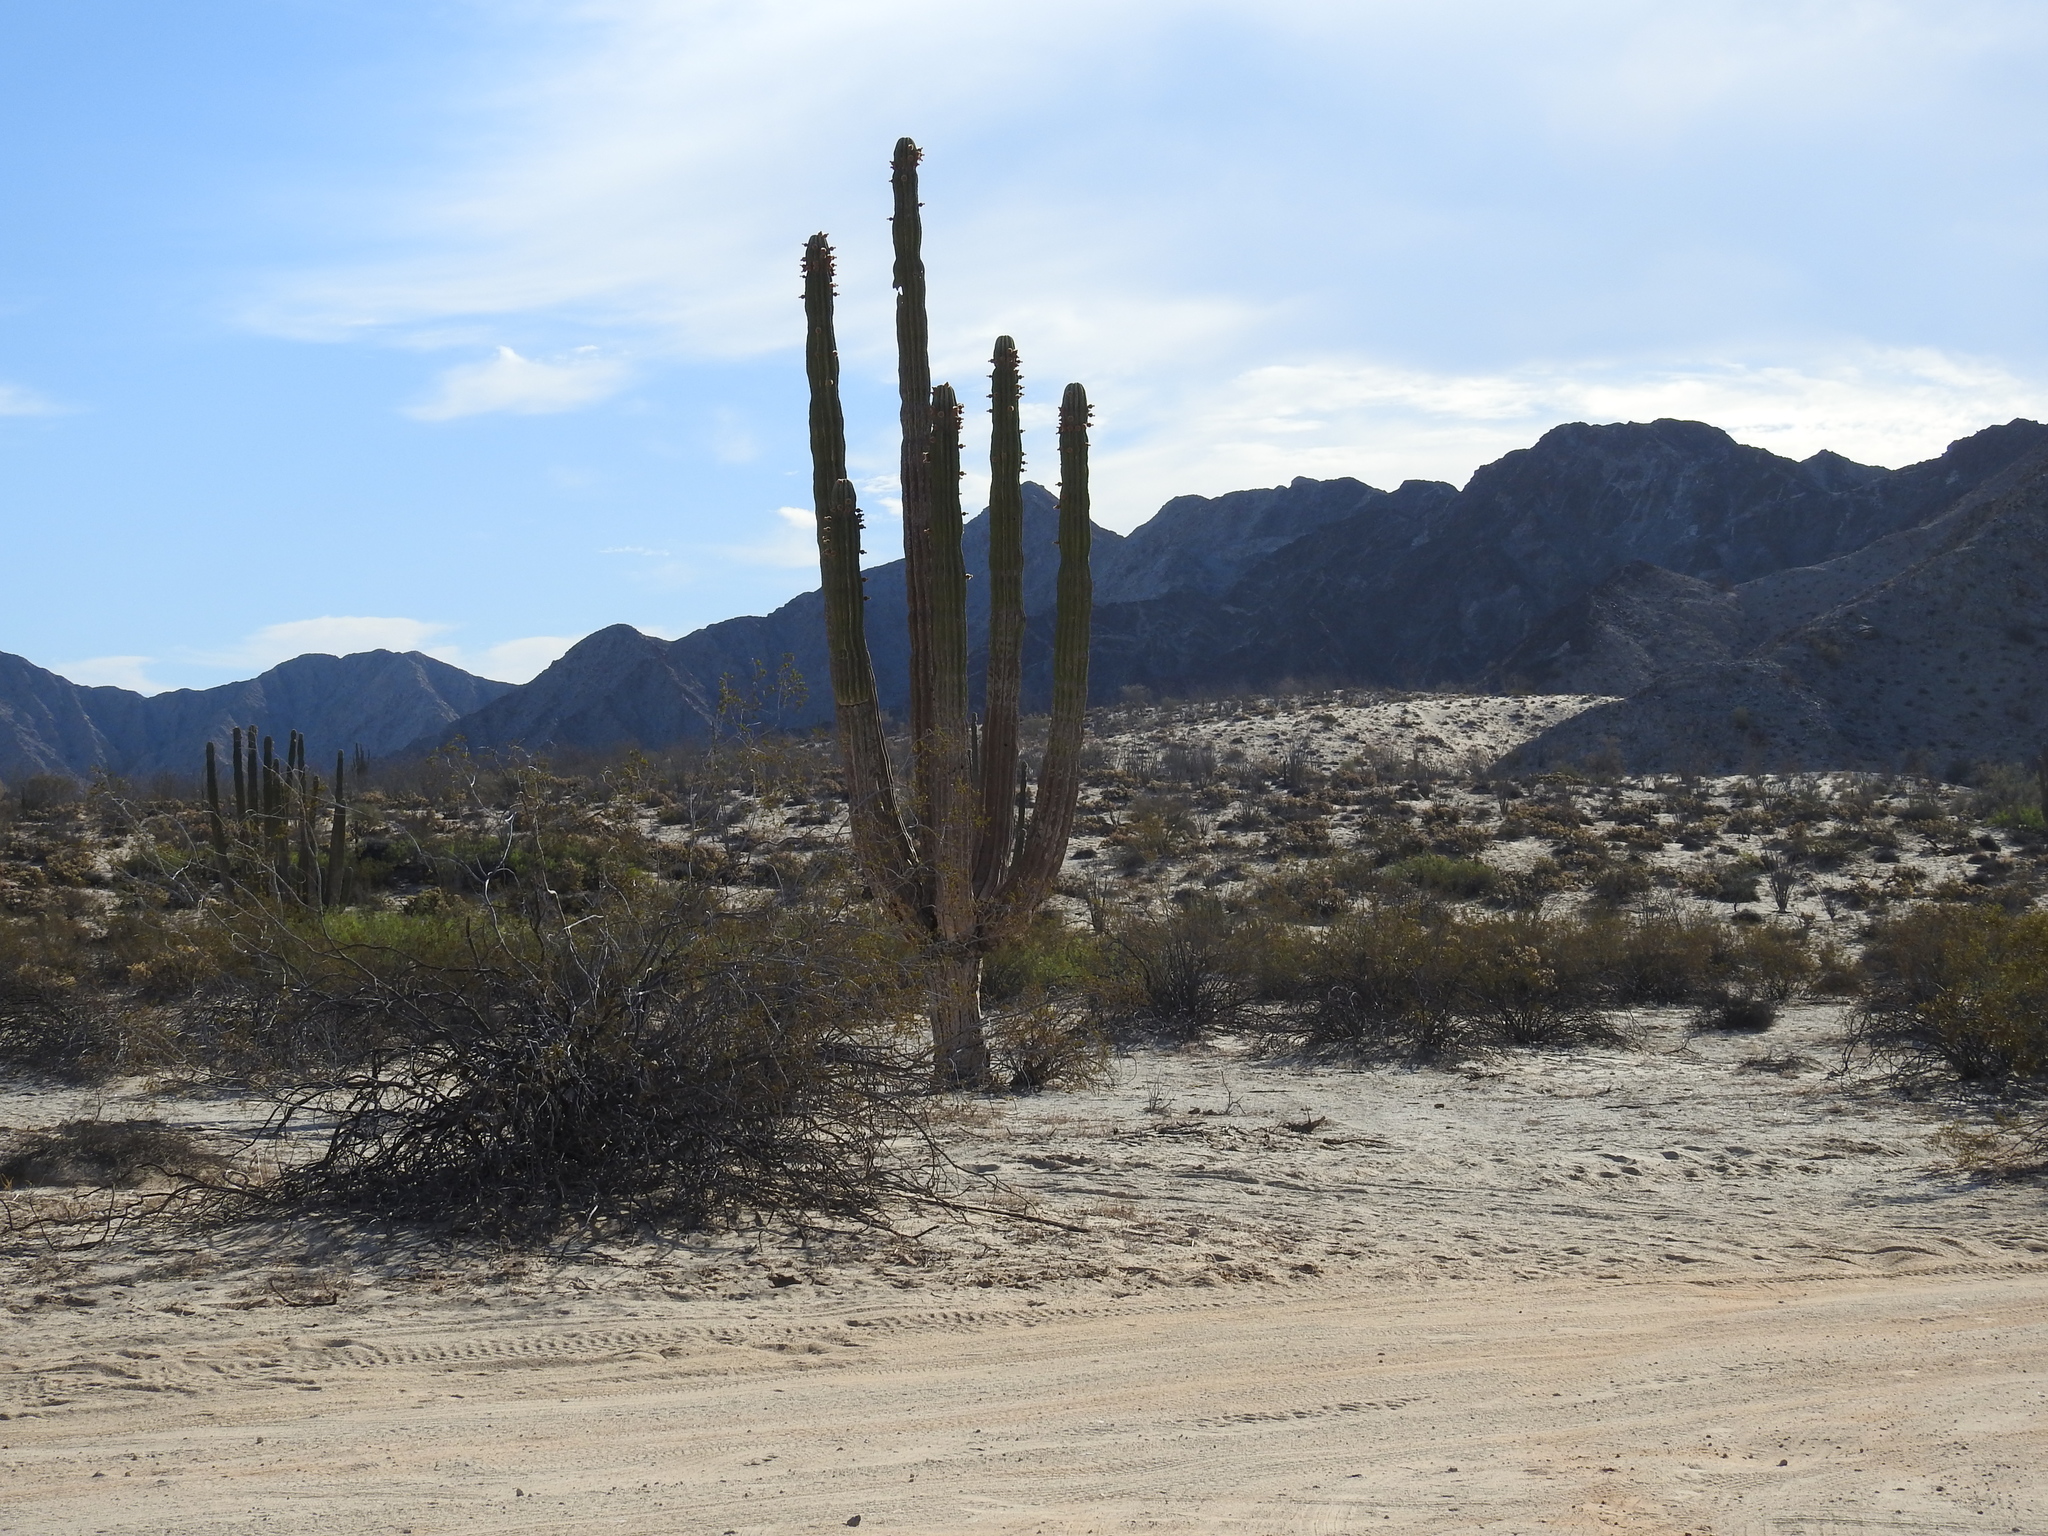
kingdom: Plantae
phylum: Tracheophyta
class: Magnoliopsida
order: Caryophyllales
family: Cactaceae
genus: Pachycereus
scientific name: Pachycereus pringlei
